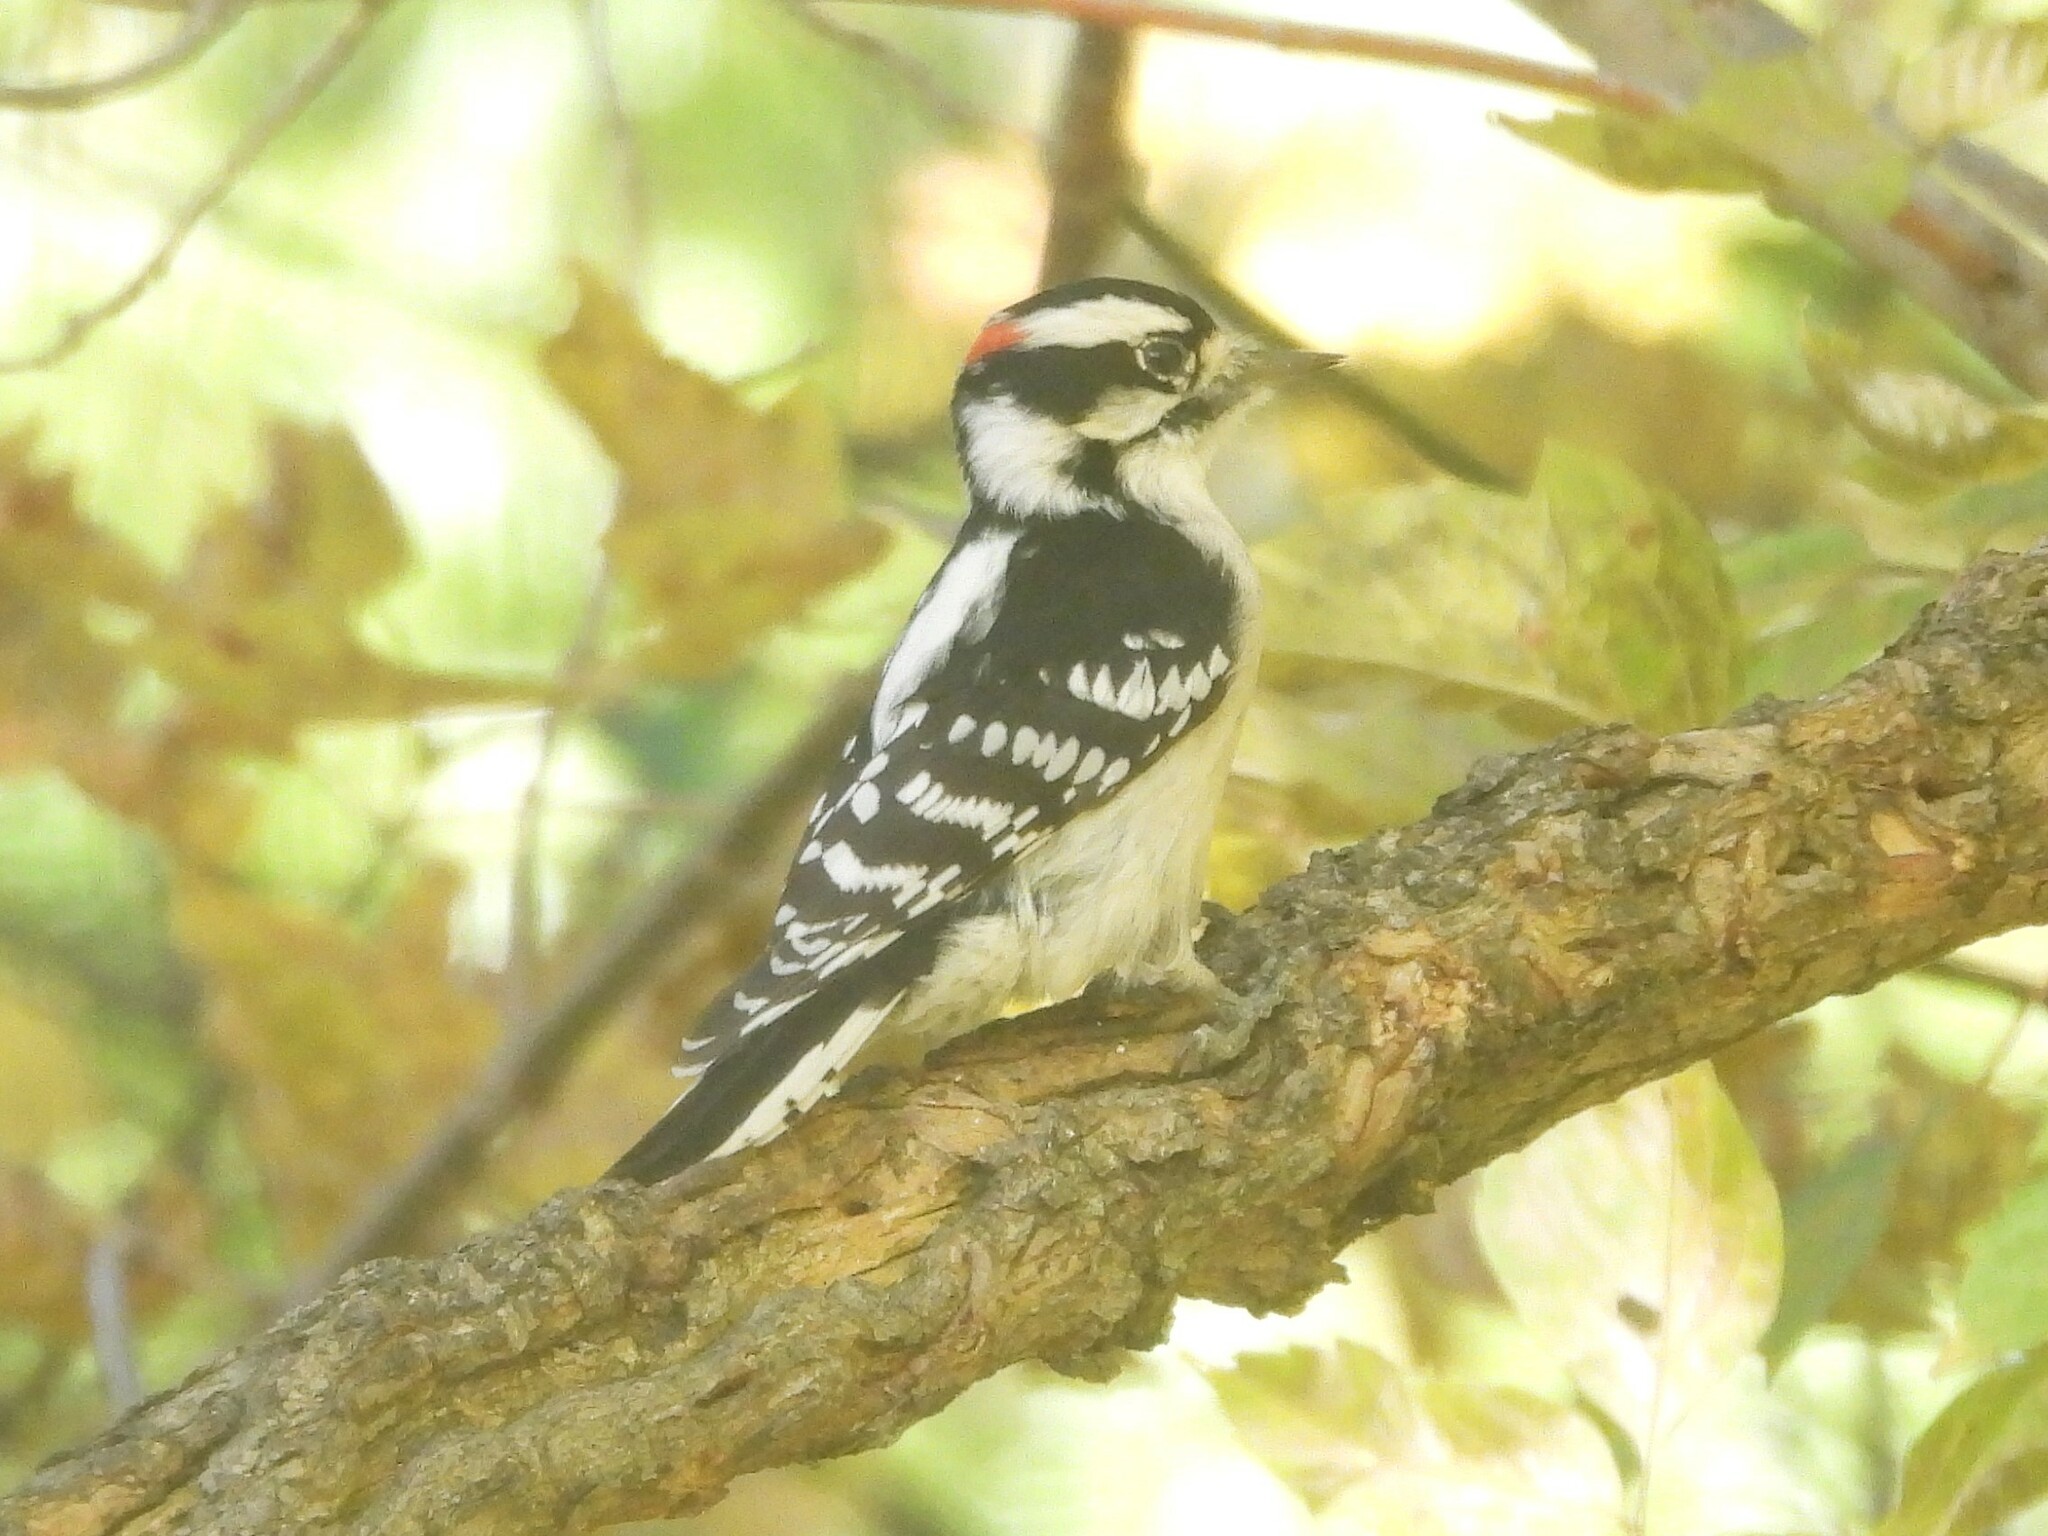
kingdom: Animalia
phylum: Chordata
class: Aves
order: Piciformes
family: Picidae
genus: Dryobates
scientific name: Dryobates pubescens
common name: Downy woodpecker
